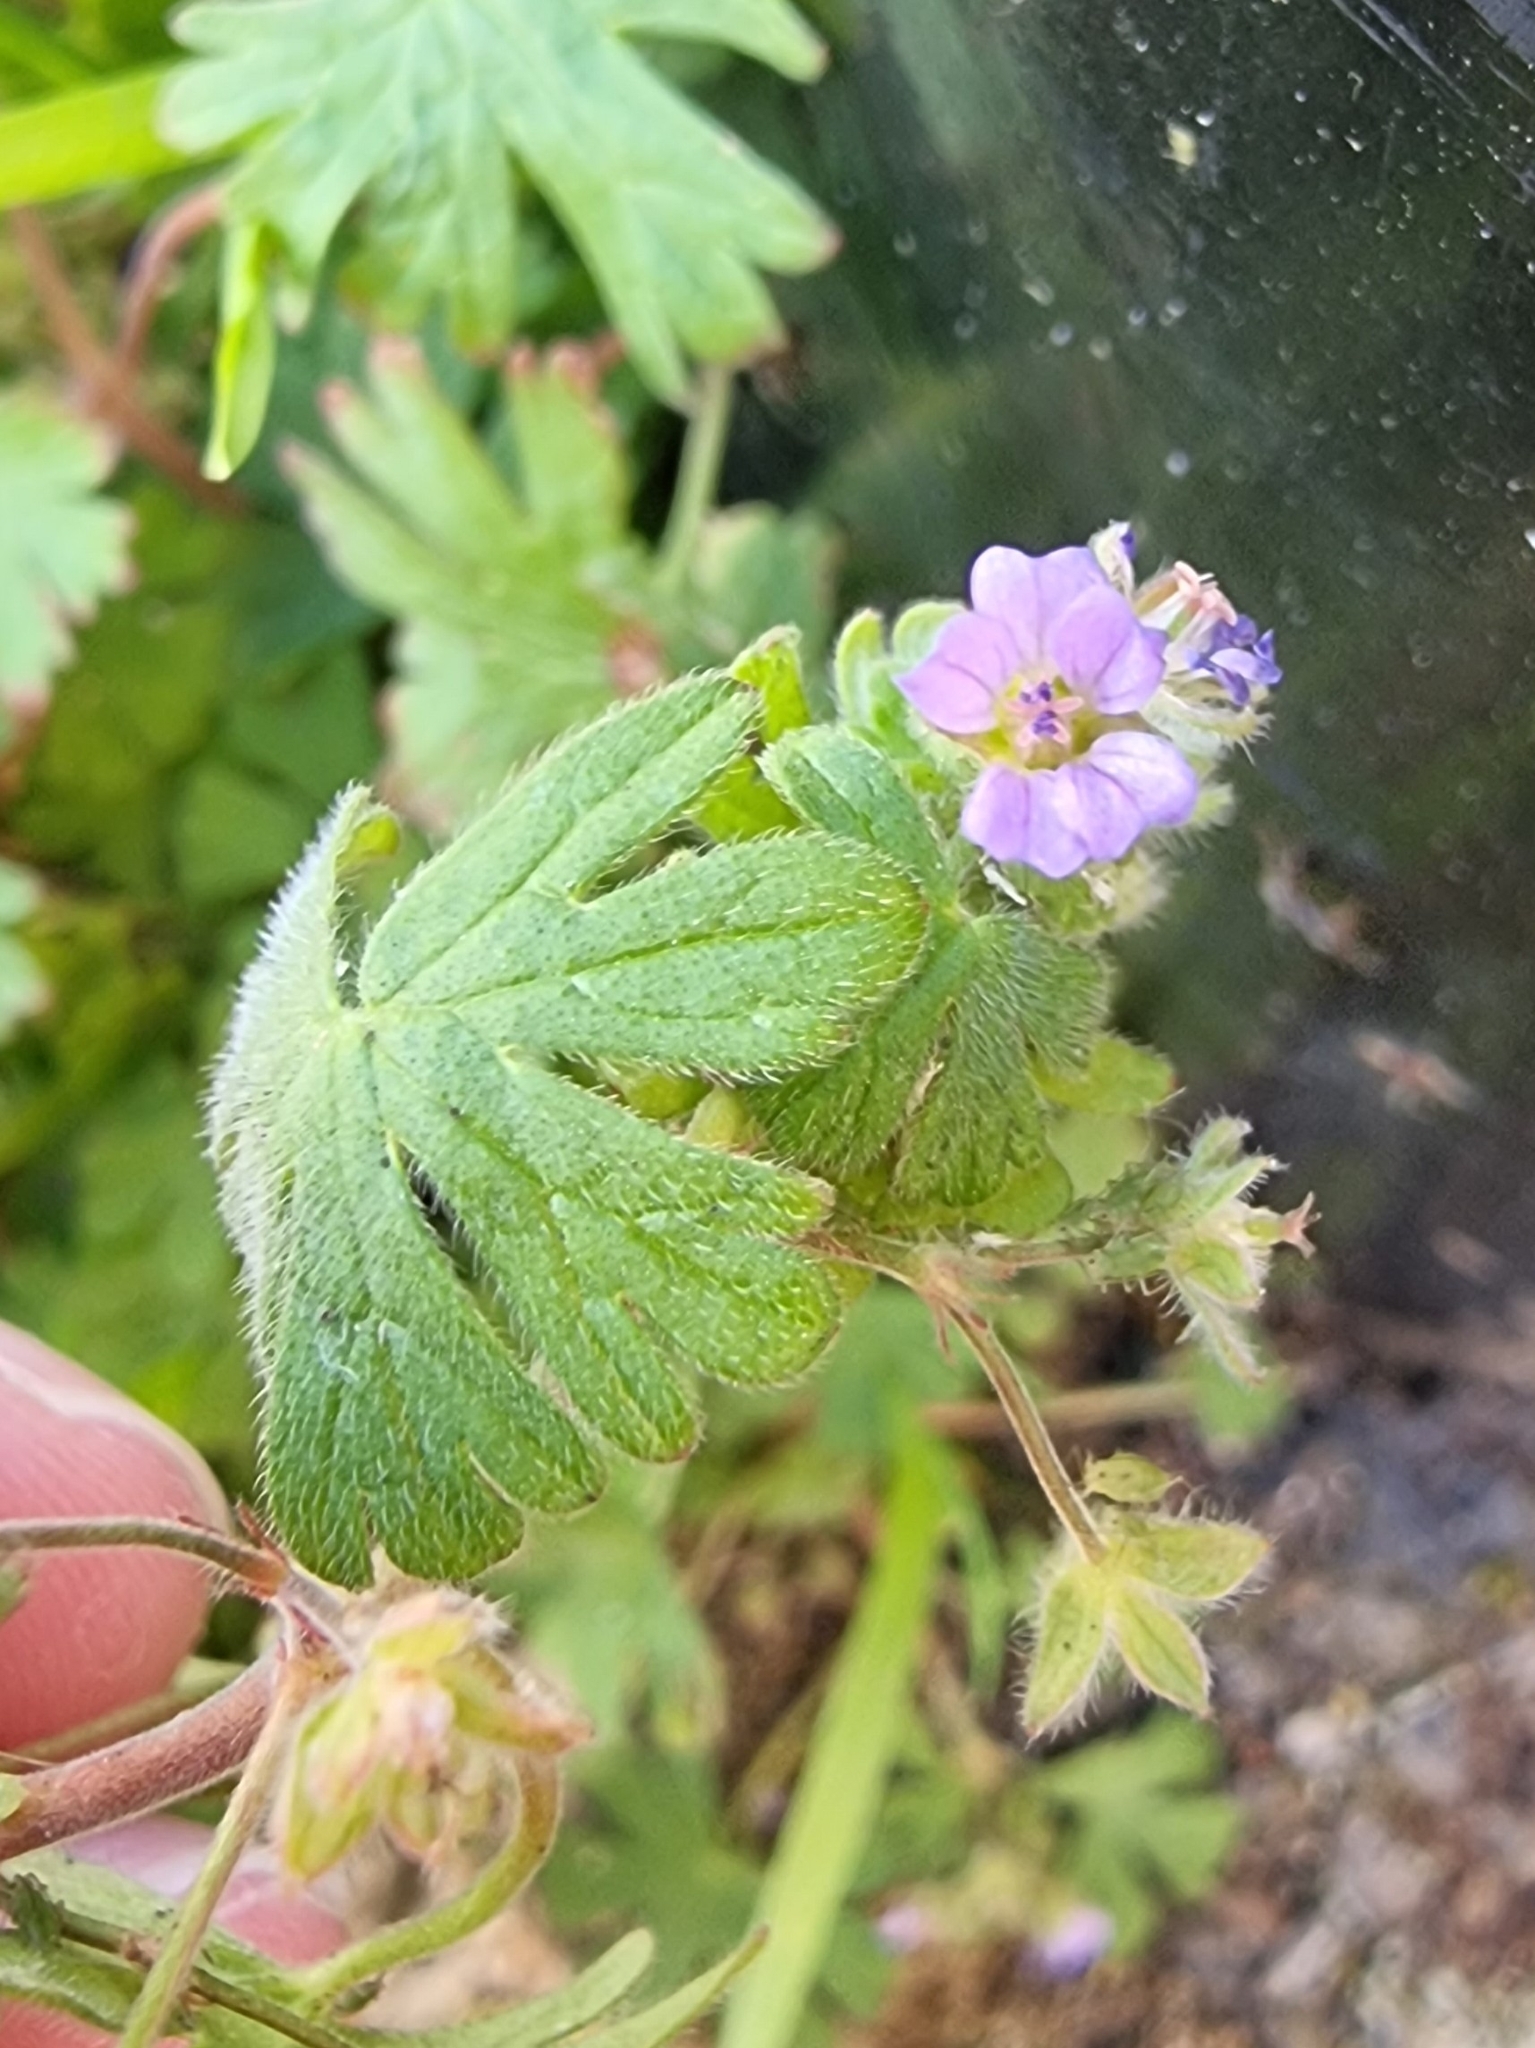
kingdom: Plantae
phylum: Tracheophyta
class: Magnoliopsida
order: Geraniales
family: Geraniaceae
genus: Geranium
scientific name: Geranium pusillum
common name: Small geranium
